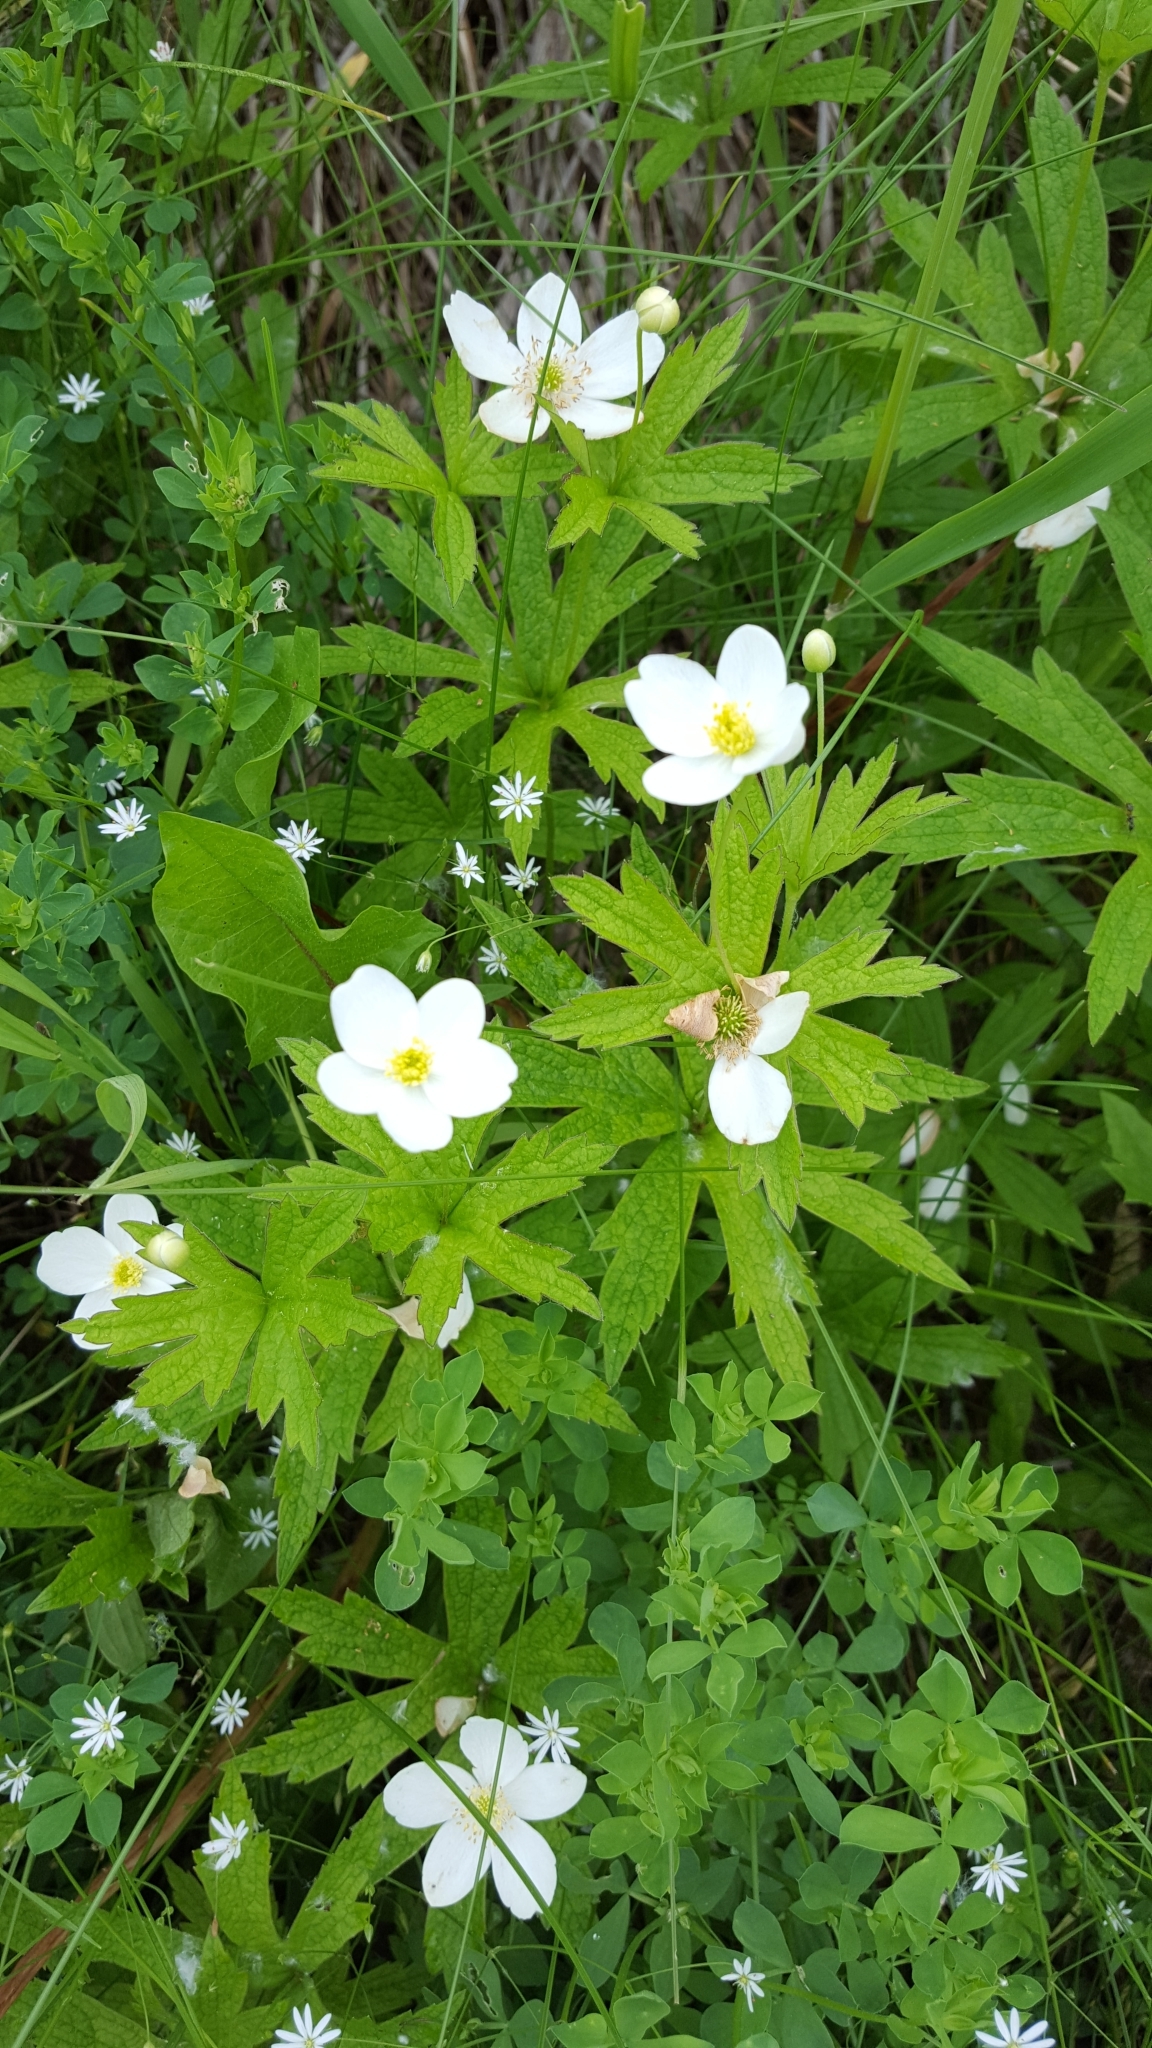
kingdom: Plantae
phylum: Tracheophyta
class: Magnoliopsida
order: Ranunculales
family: Ranunculaceae
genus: Anemonastrum
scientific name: Anemonastrum canadense
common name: Canada anemone
